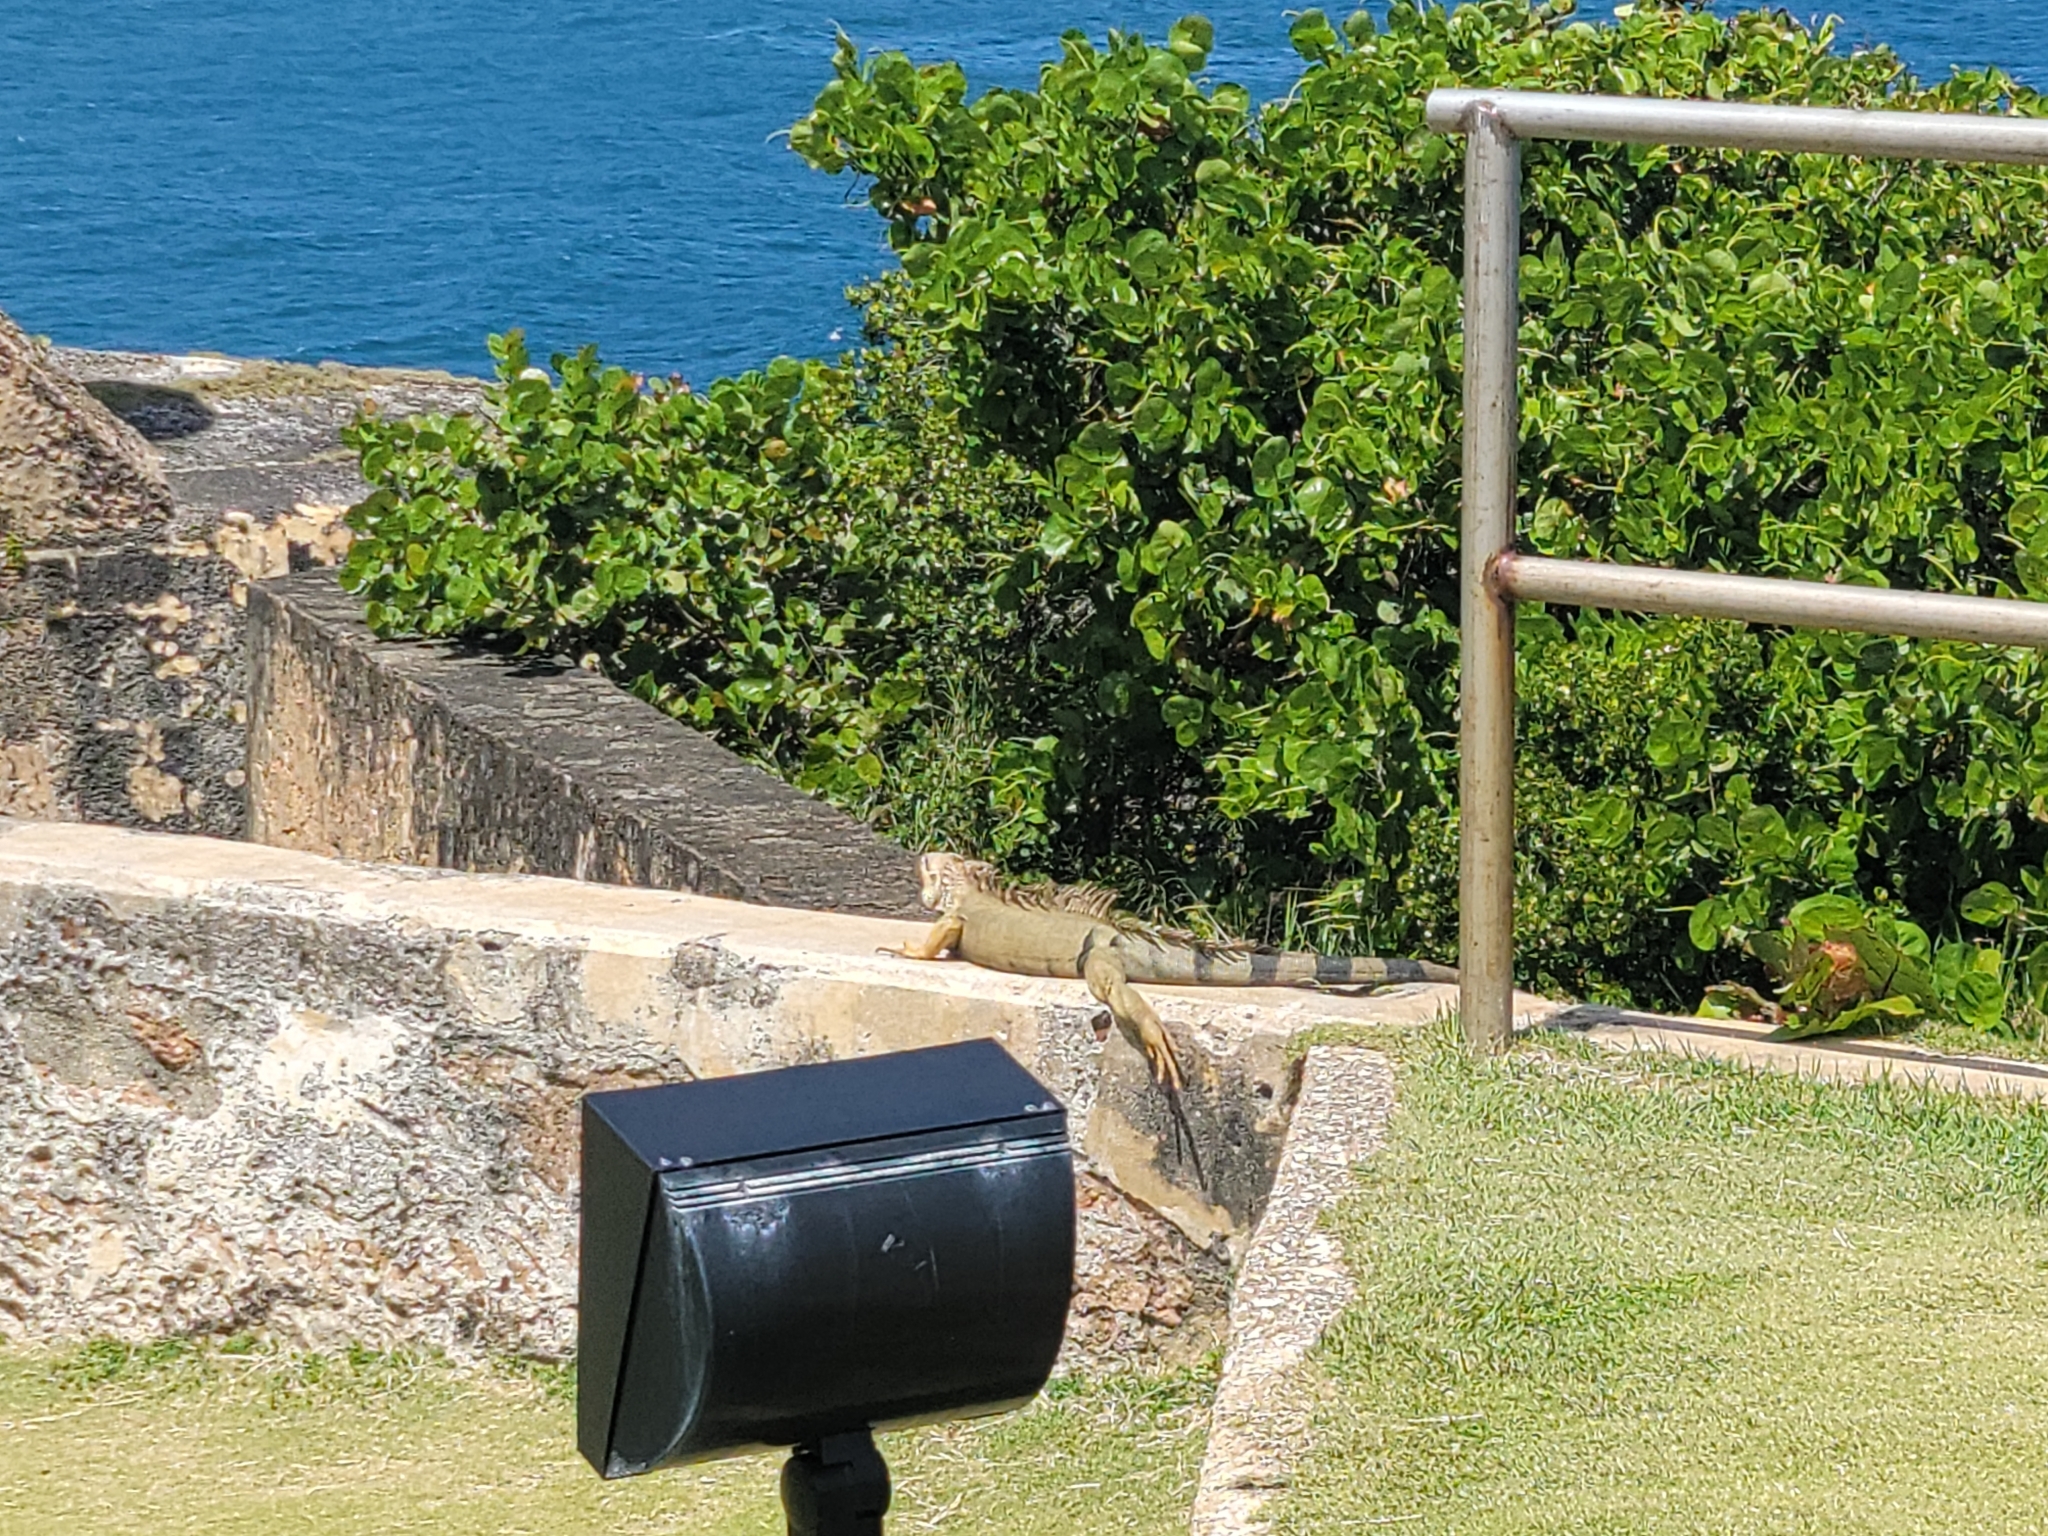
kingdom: Animalia
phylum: Chordata
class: Squamata
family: Iguanidae
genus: Iguana
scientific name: Iguana iguana
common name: Green iguana
